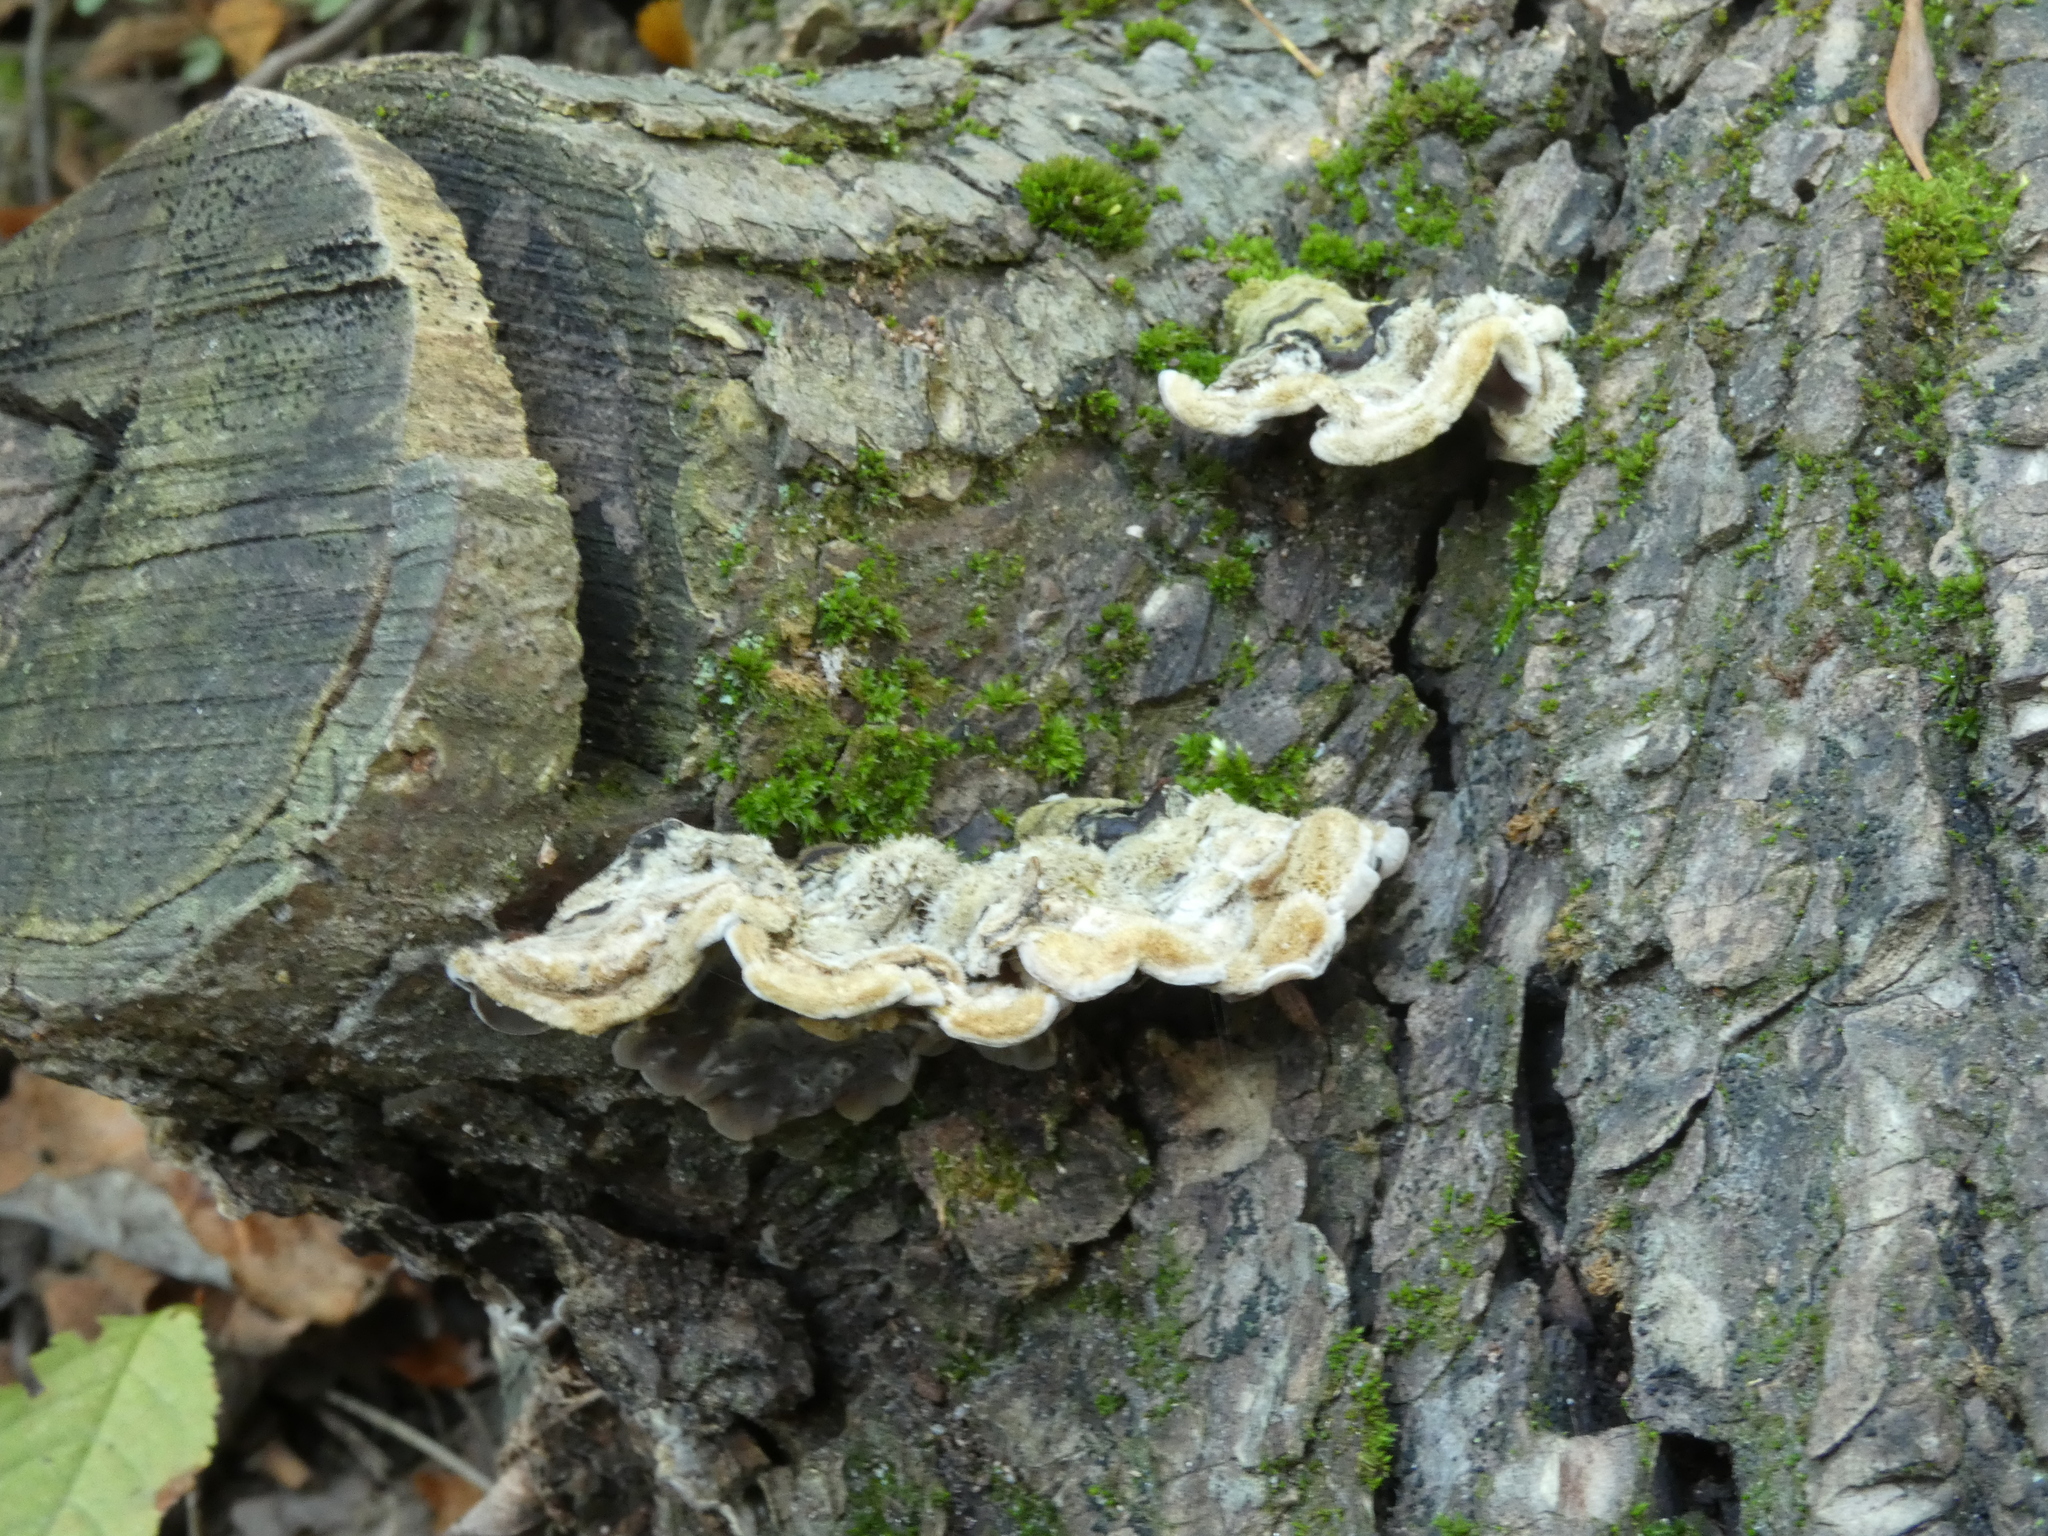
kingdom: Fungi
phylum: Basidiomycota
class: Agaricomycetes
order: Auriculariales
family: Auriculariaceae
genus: Auricularia
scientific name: Auricularia mesenterica
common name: Tripe fungus
